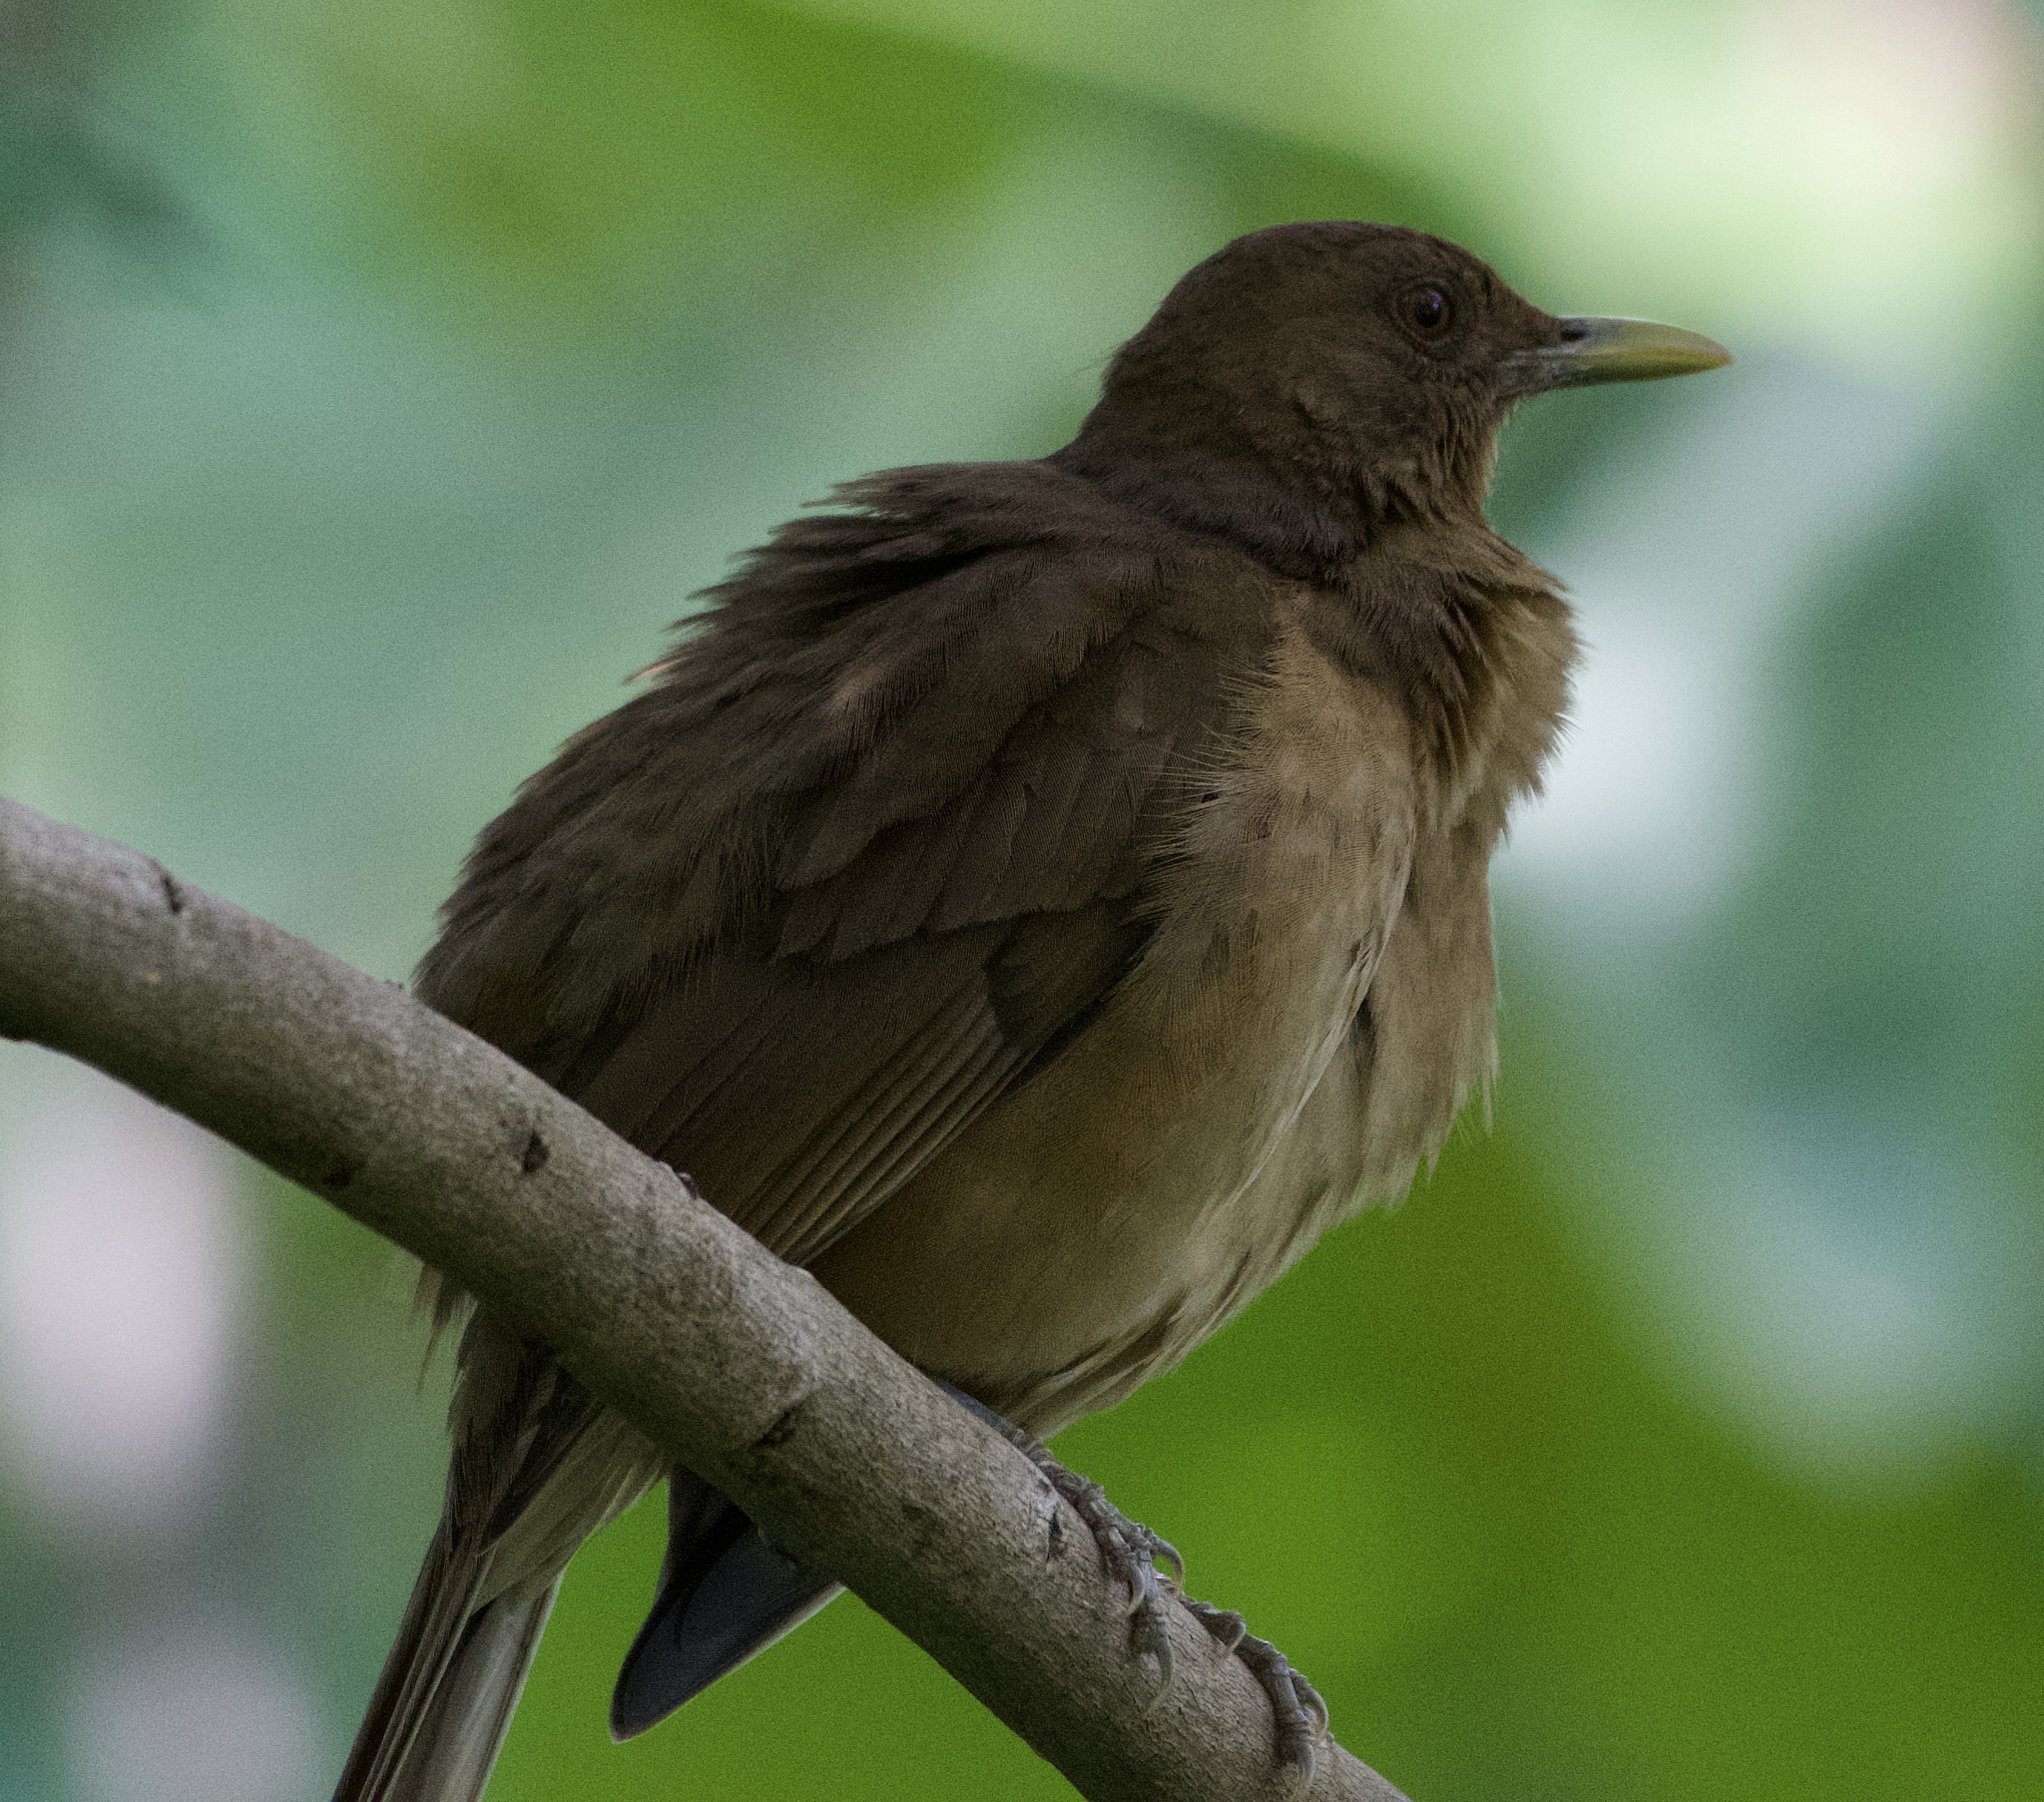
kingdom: Animalia
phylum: Chordata
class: Aves
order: Passeriformes
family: Turdidae
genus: Turdus
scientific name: Turdus grayi
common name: Clay-colored thrush
